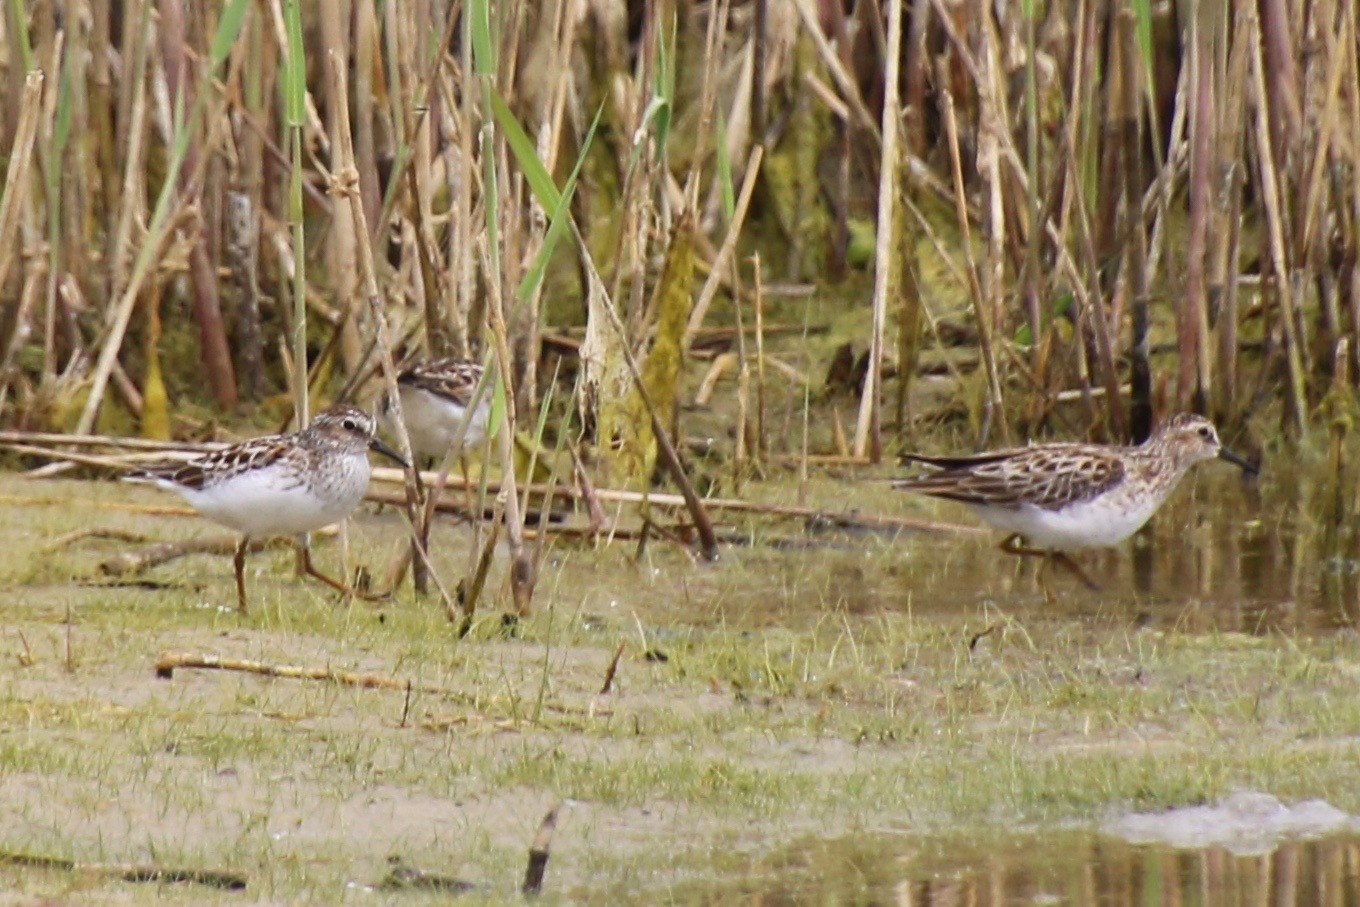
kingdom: Animalia
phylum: Chordata
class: Aves
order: Charadriiformes
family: Scolopacidae
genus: Calidris
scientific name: Calidris minutilla
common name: Least sandpiper
